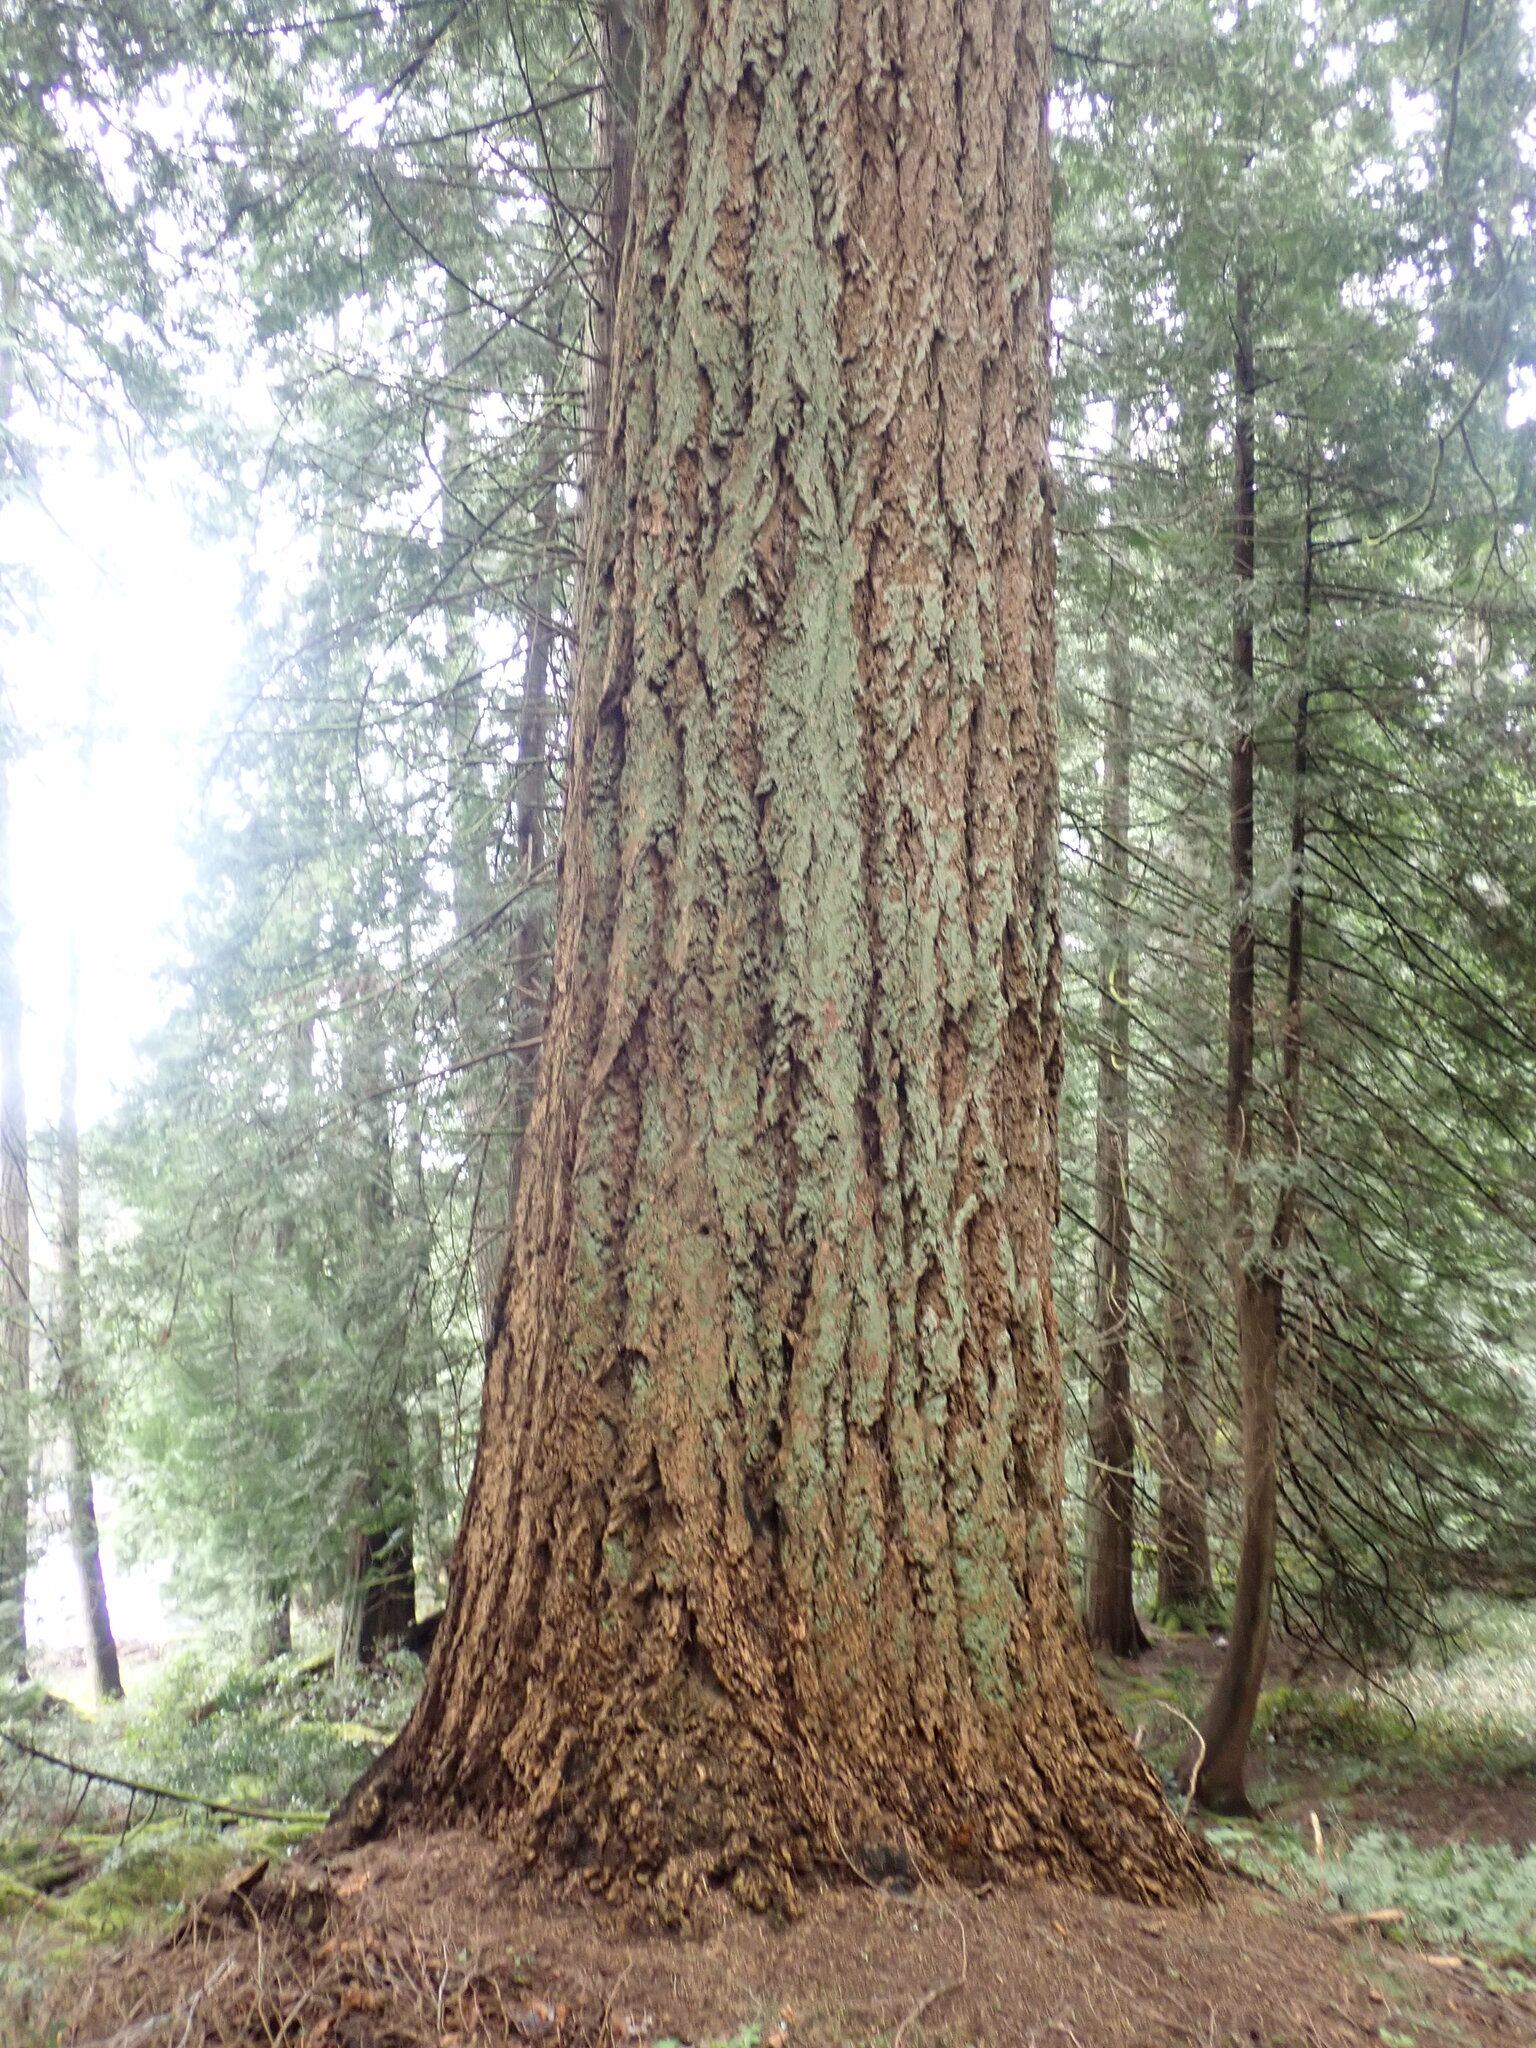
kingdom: Plantae
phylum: Tracheophyta
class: Pinopsida
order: Pinales
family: Pinaceae
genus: Pseudotsuga
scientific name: Pseudotsuga menziesii
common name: Douglas fir
